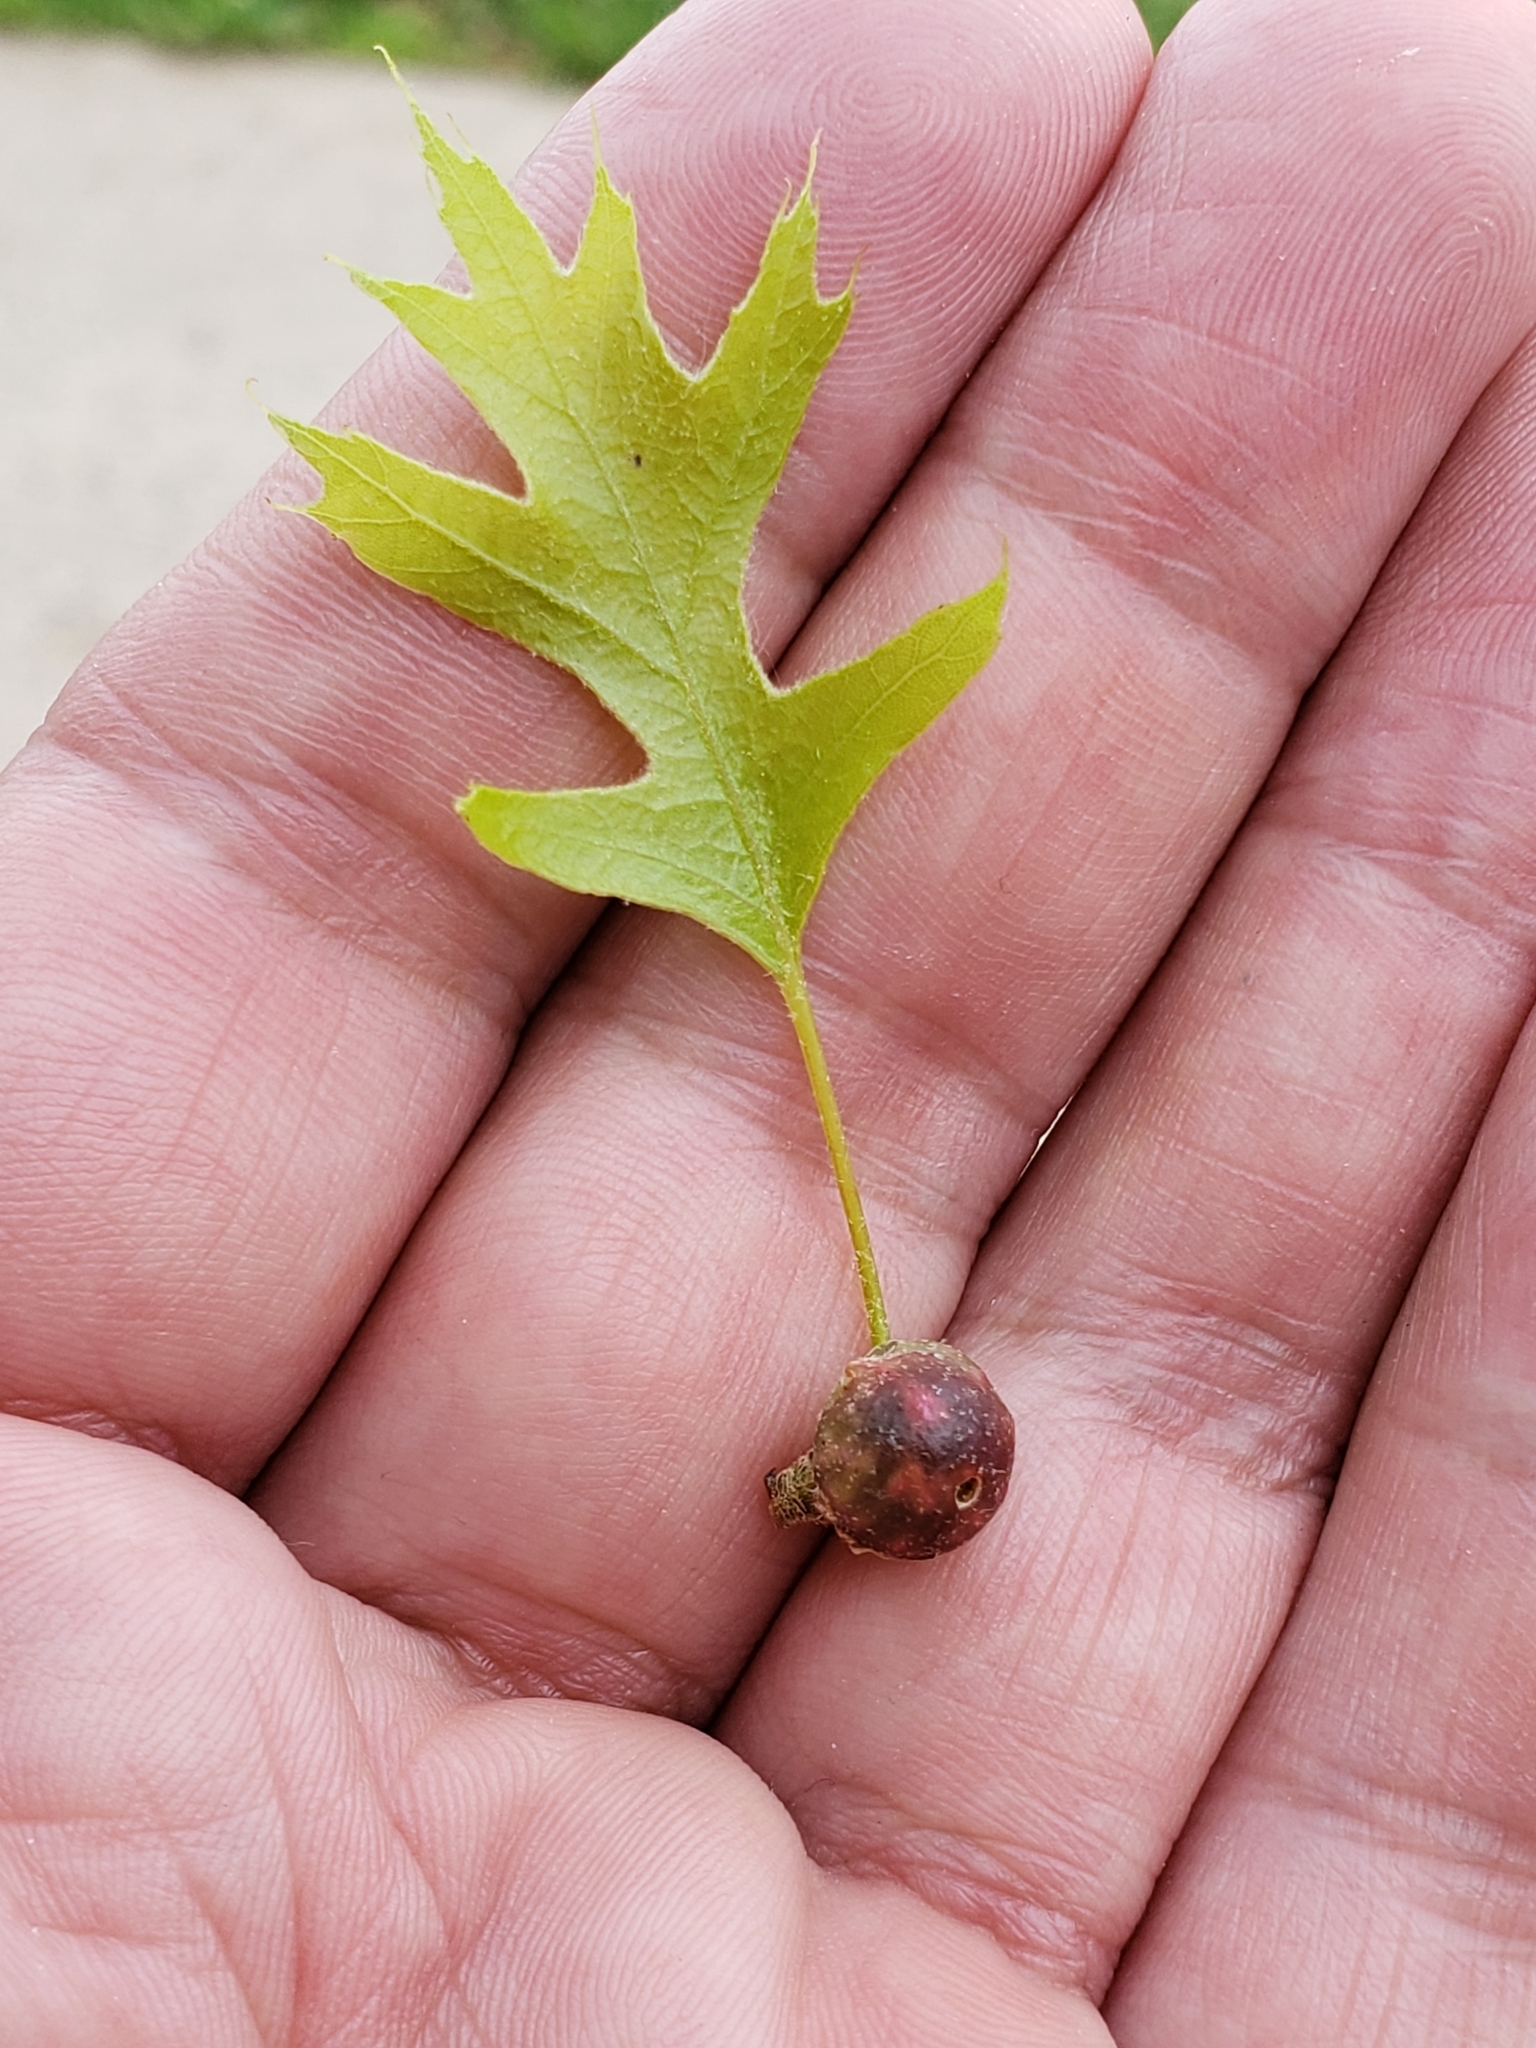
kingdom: Animalia
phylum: Arthropoda
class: Insecta
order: Hymenoptera
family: Cynipidae
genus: Dryocosmus
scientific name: Dryocosmus quercuspalustris
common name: Succulent oak gall wasp
